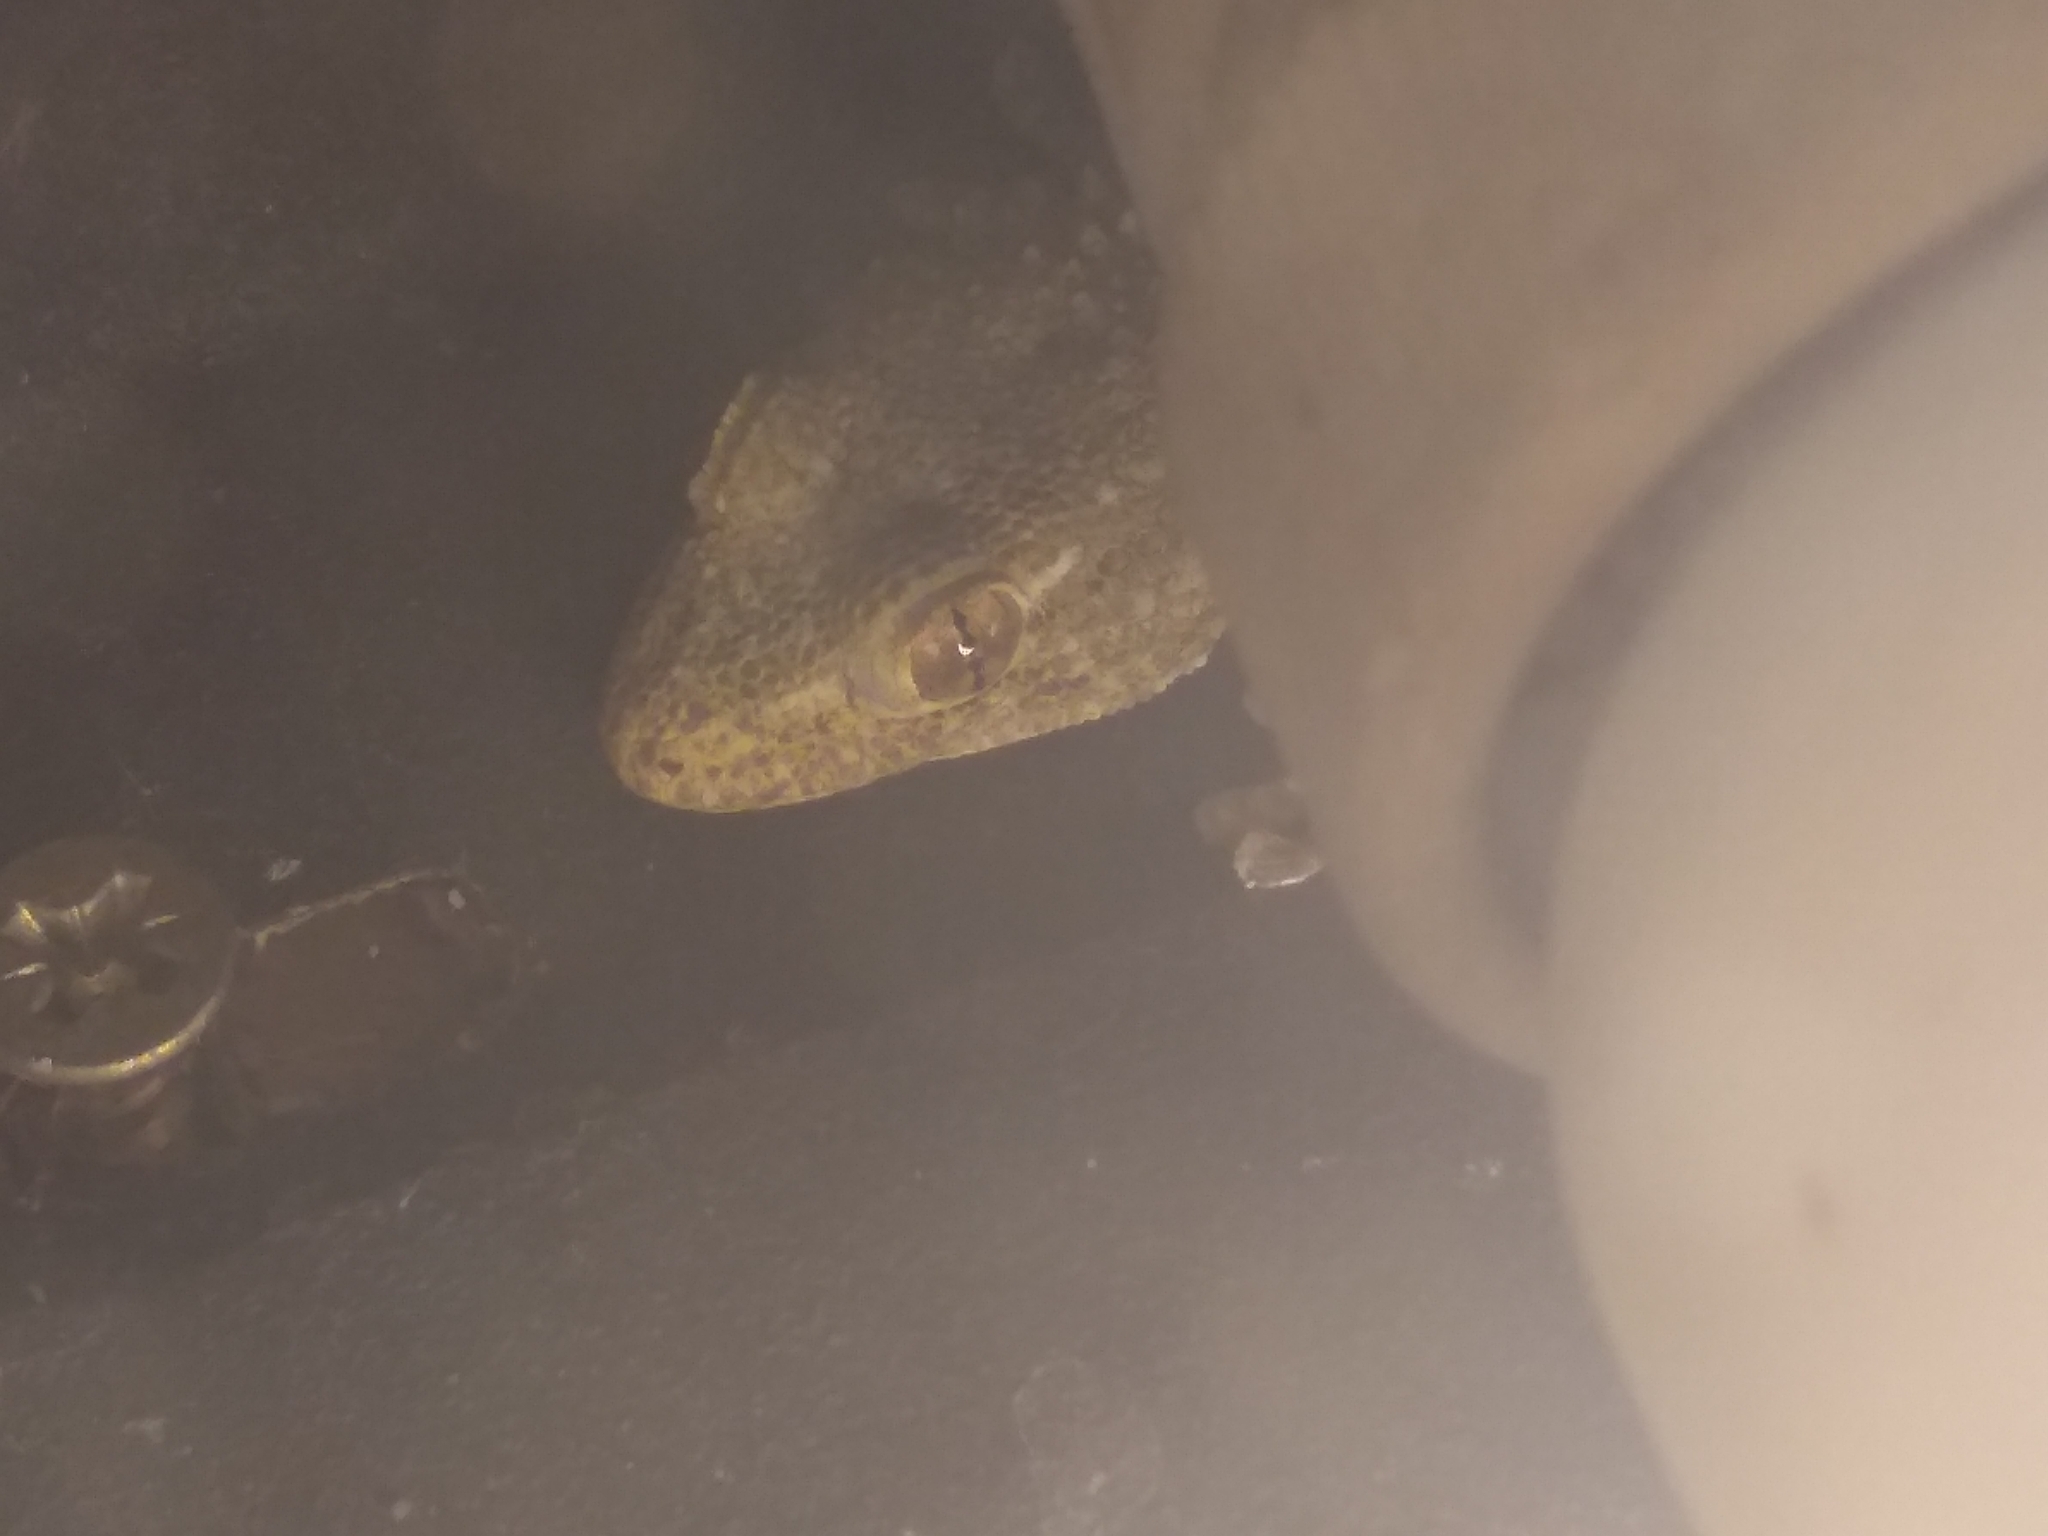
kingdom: Animalia
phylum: Chordata
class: Squamata
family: Phyllodactylidae
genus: Tarentola
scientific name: Tarentola mauritanica
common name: Moorish gecko
